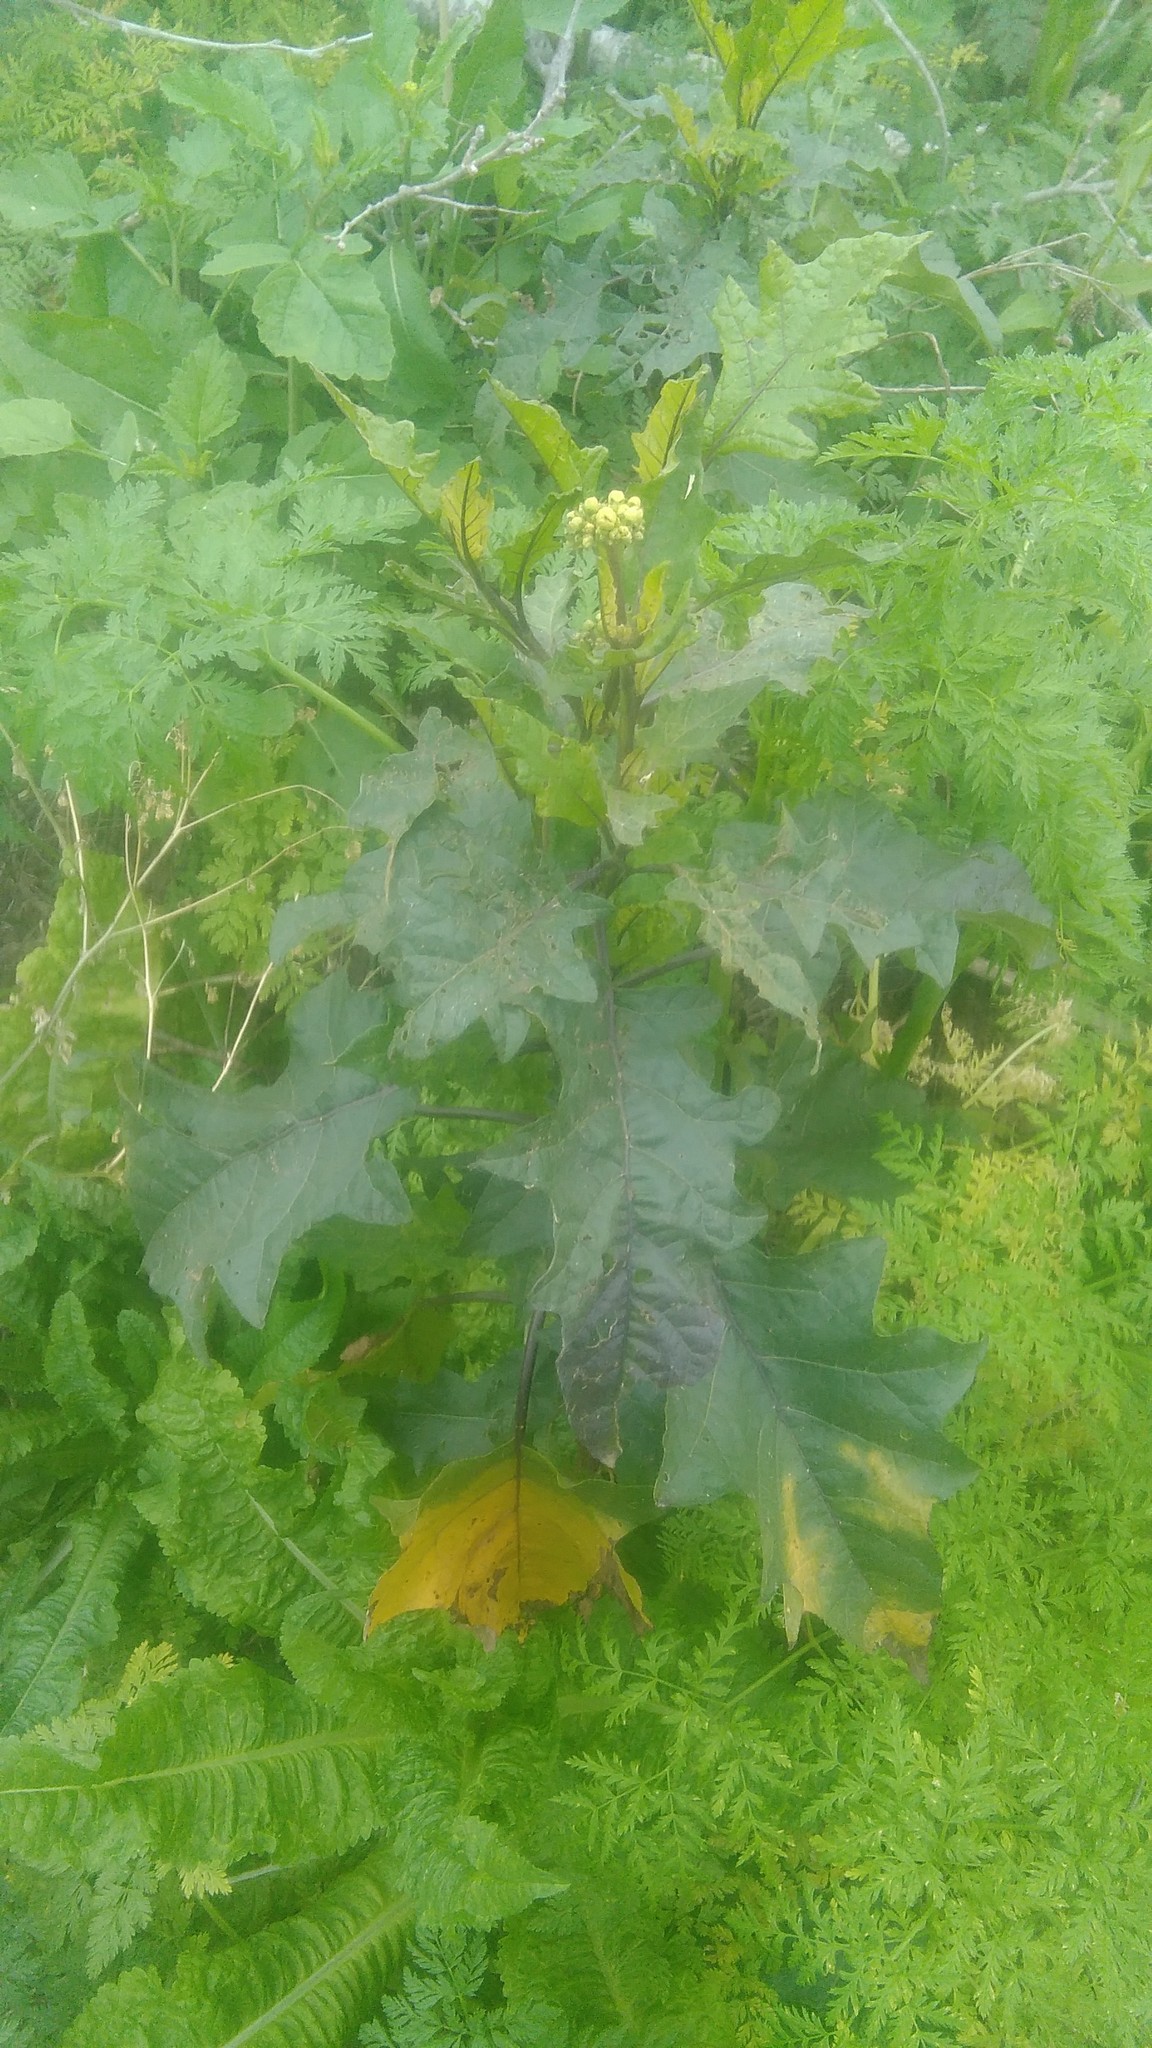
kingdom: Plantae
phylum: Tracheophyta
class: Magnoliopsida
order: Solanales
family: Solanaceae
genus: Solanum
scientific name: Solanum bonariense
